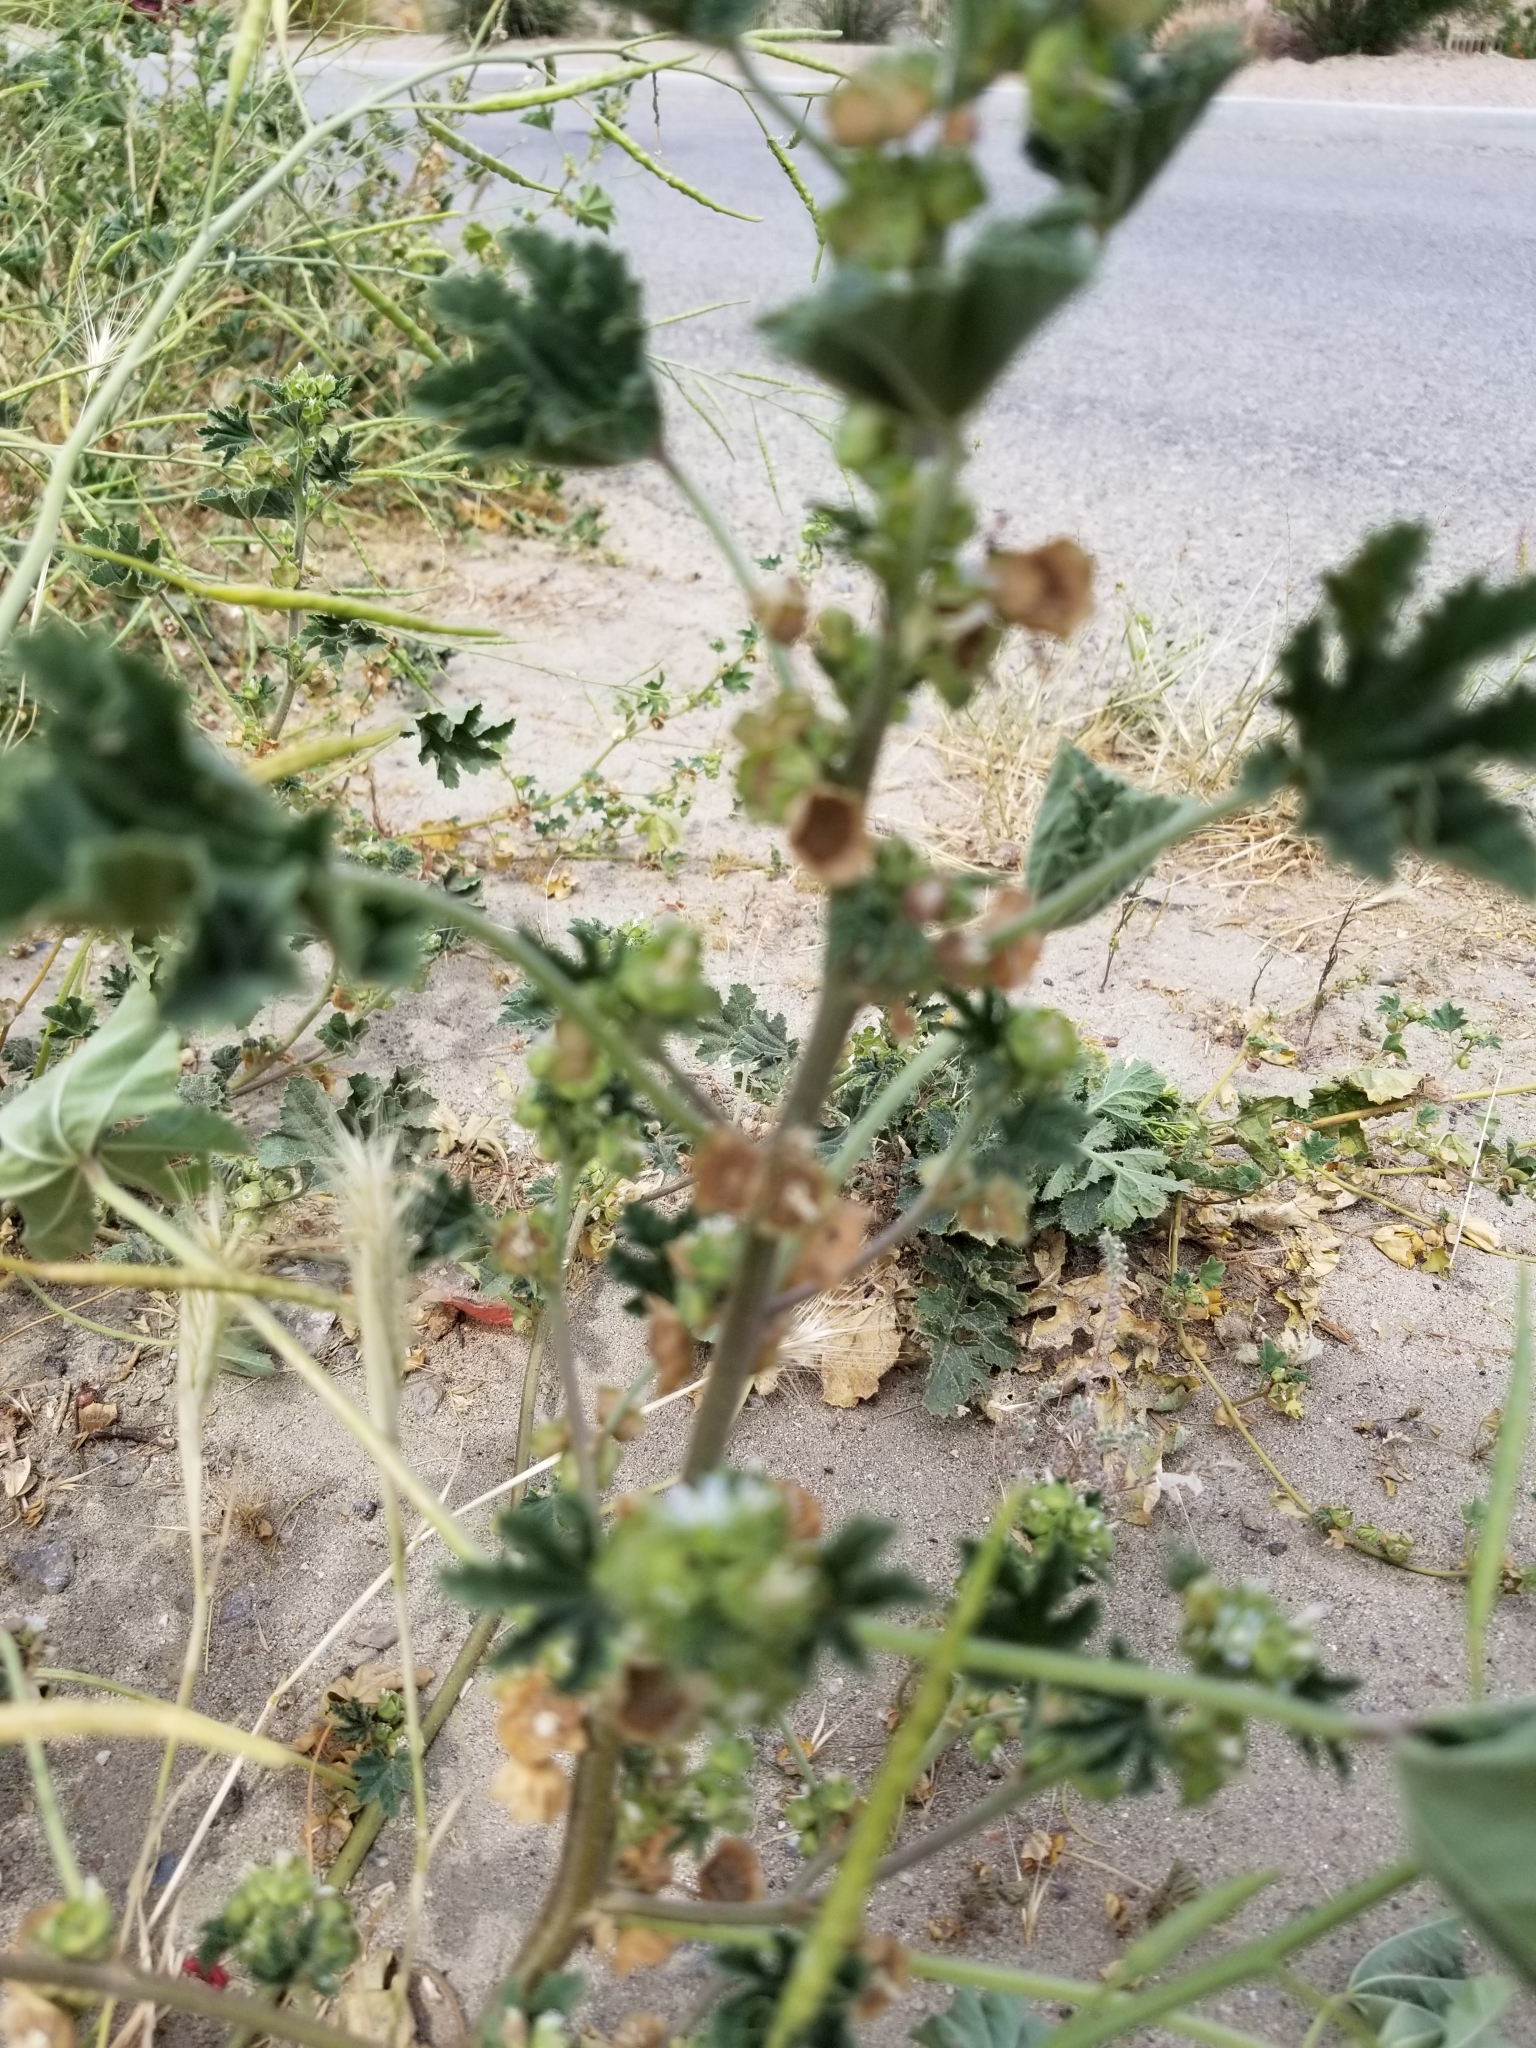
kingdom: Plantae
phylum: Tracheophyta
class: Magnoliopsida
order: Malvales
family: Malvaceae
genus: Malva
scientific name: Malva parviflora
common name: Least mallow
